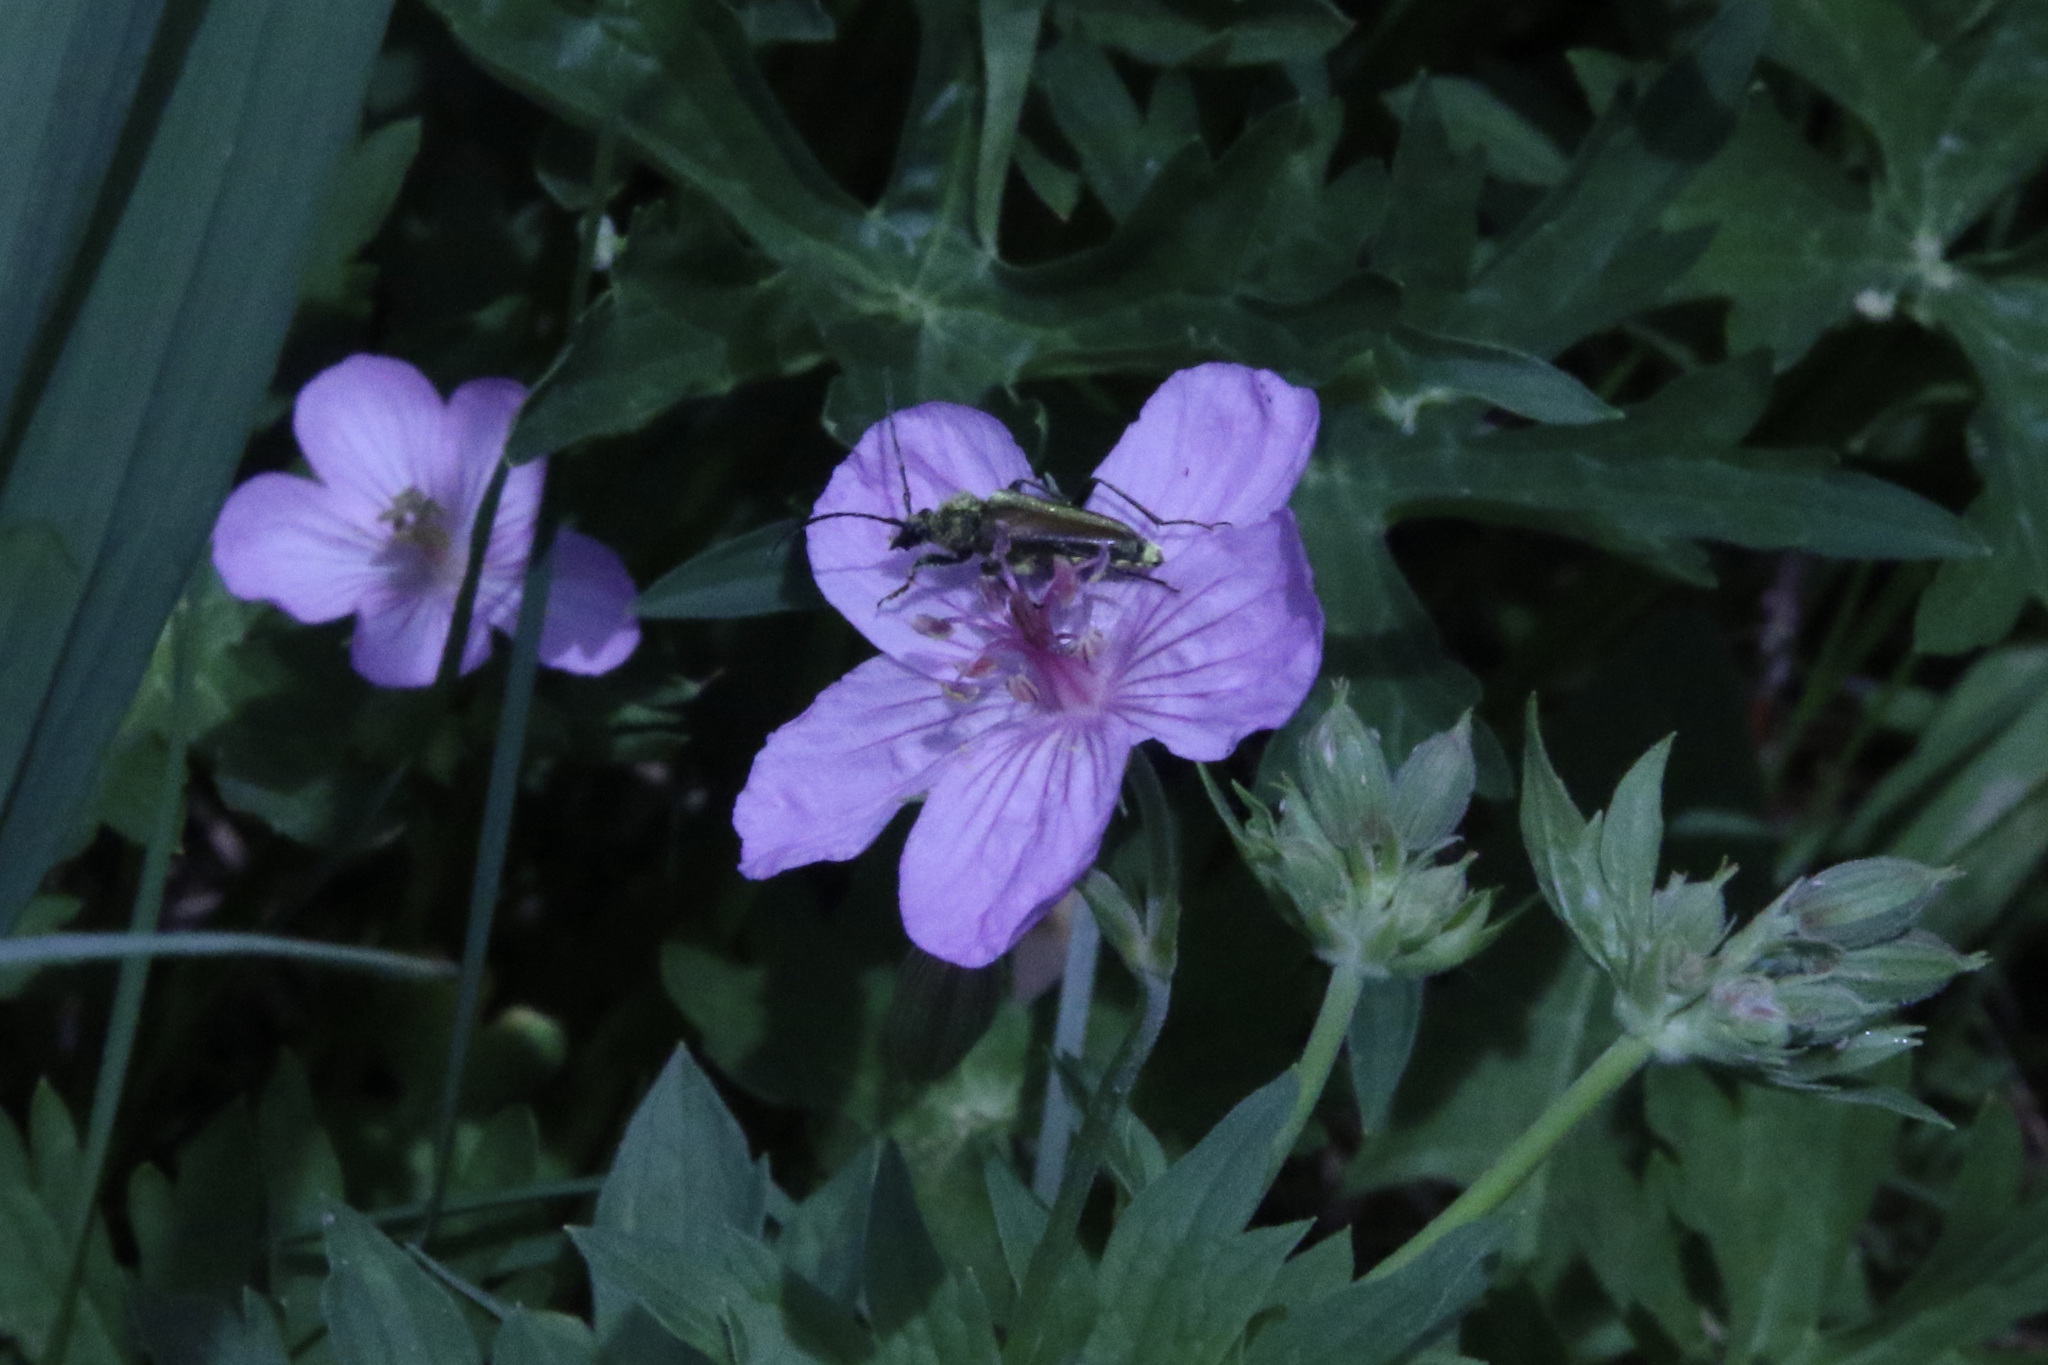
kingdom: Animalia
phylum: Arthropoda
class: Insecta
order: Coleoptera
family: Cerambycidae
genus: Cosmosalia
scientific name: Cosmosalia chrysocoma
